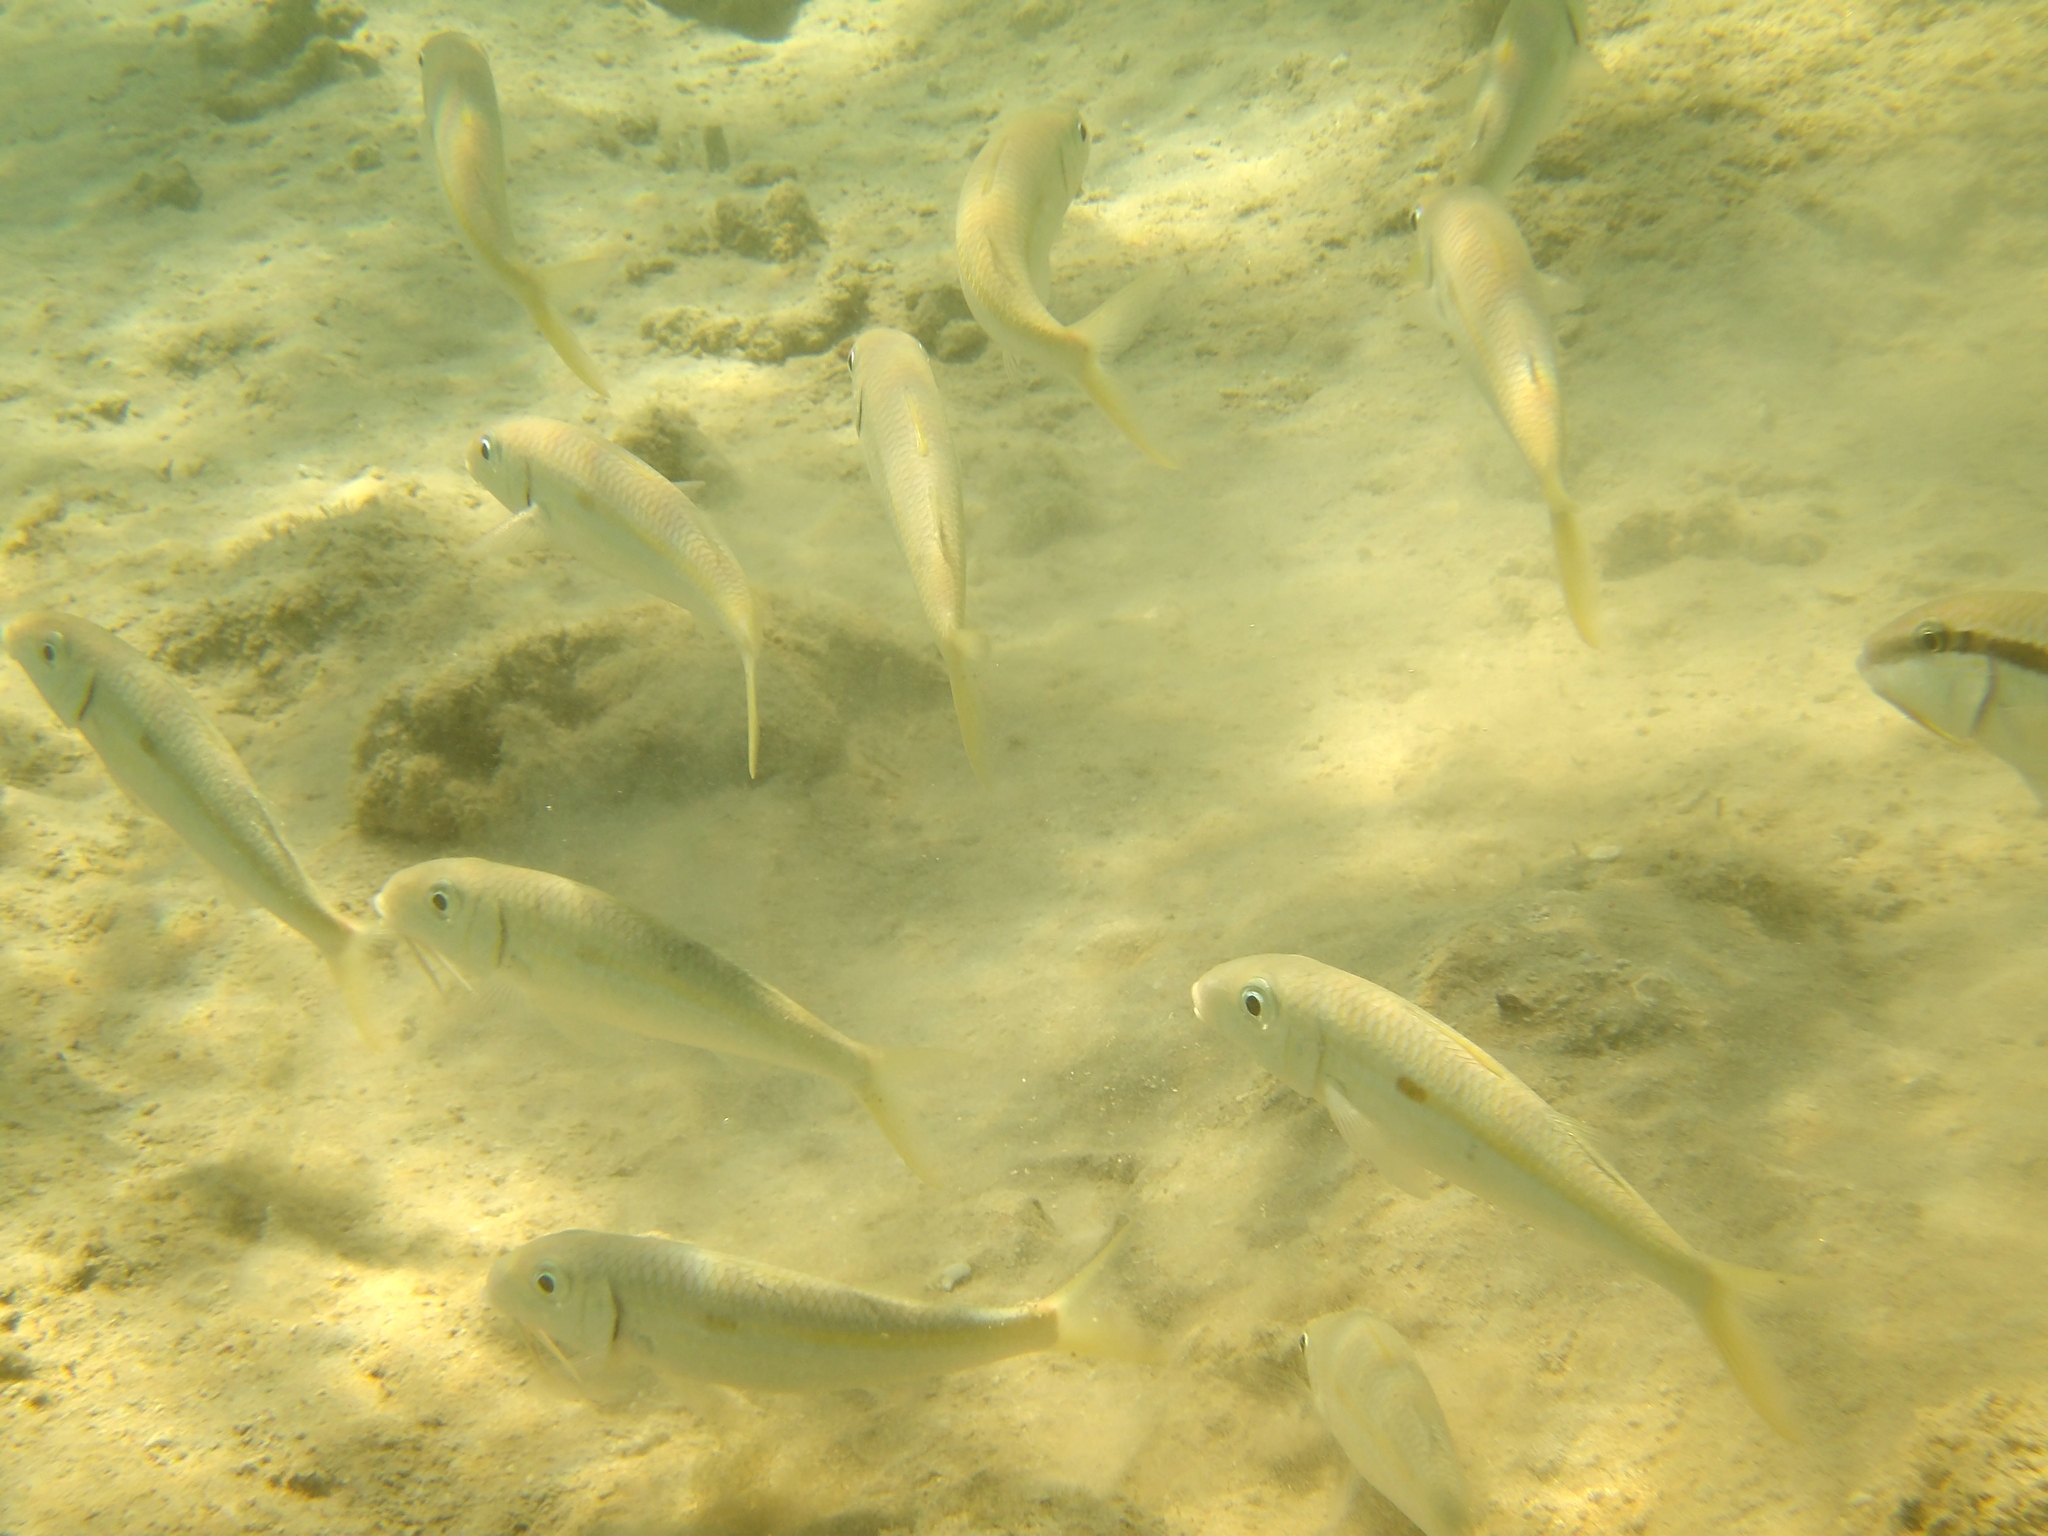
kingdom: Animalia
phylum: Chordata
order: Perciformes
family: Mullidae
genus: Mulloidichthys
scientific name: Mulloidichthys flavolineatus
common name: Yellowstripe goatfish
